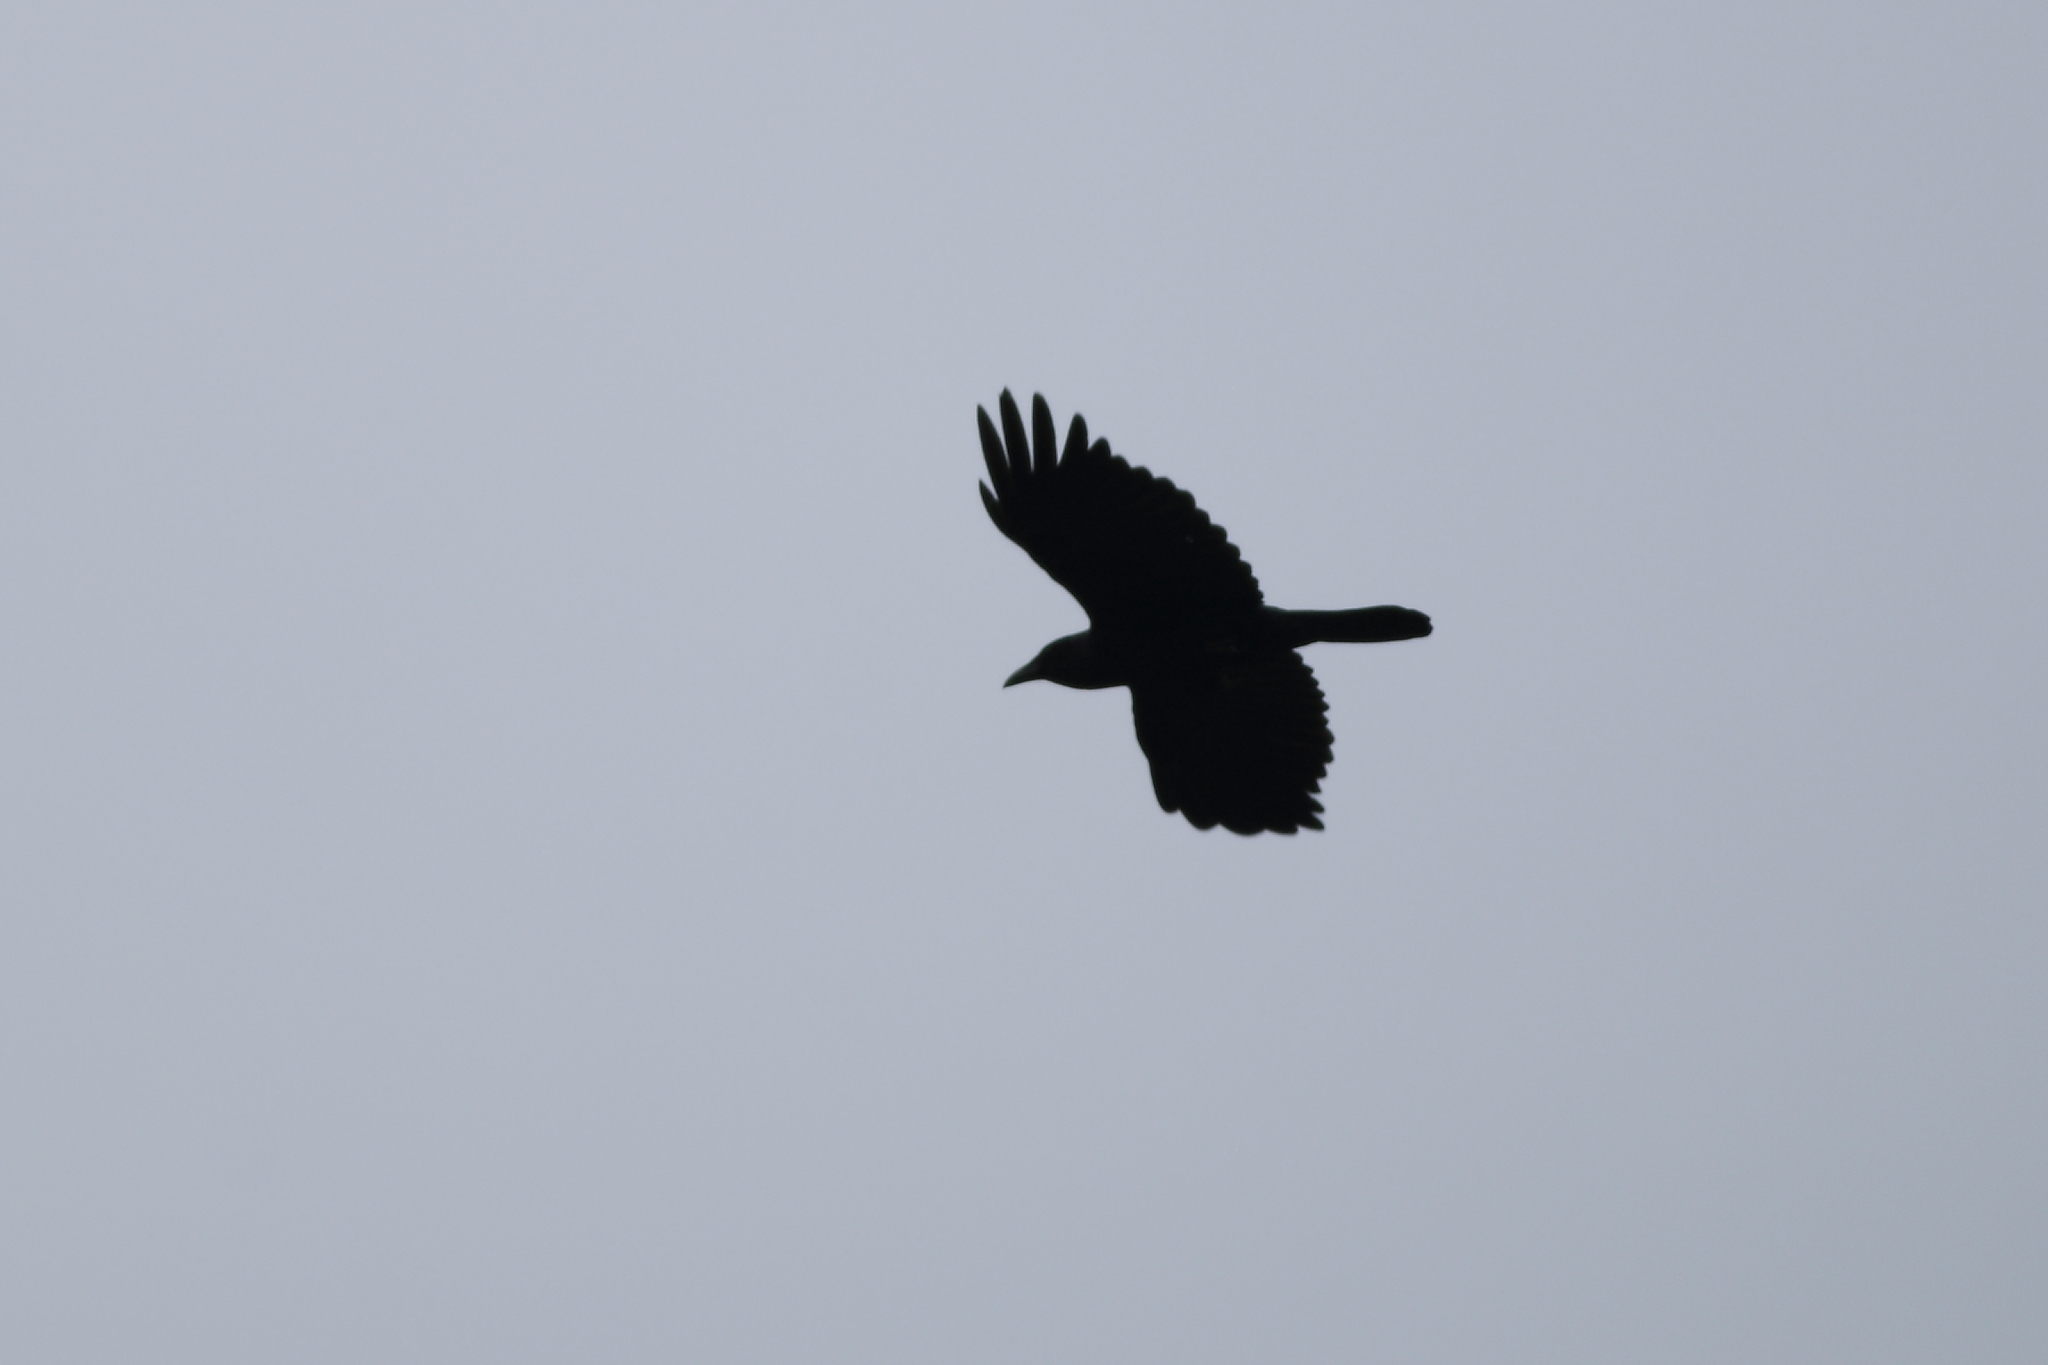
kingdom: Animalia
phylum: Chordata
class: Aves
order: Passeriformes
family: Corvidae
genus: Corvus
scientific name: Corvus ossifragus
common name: Fish crow
